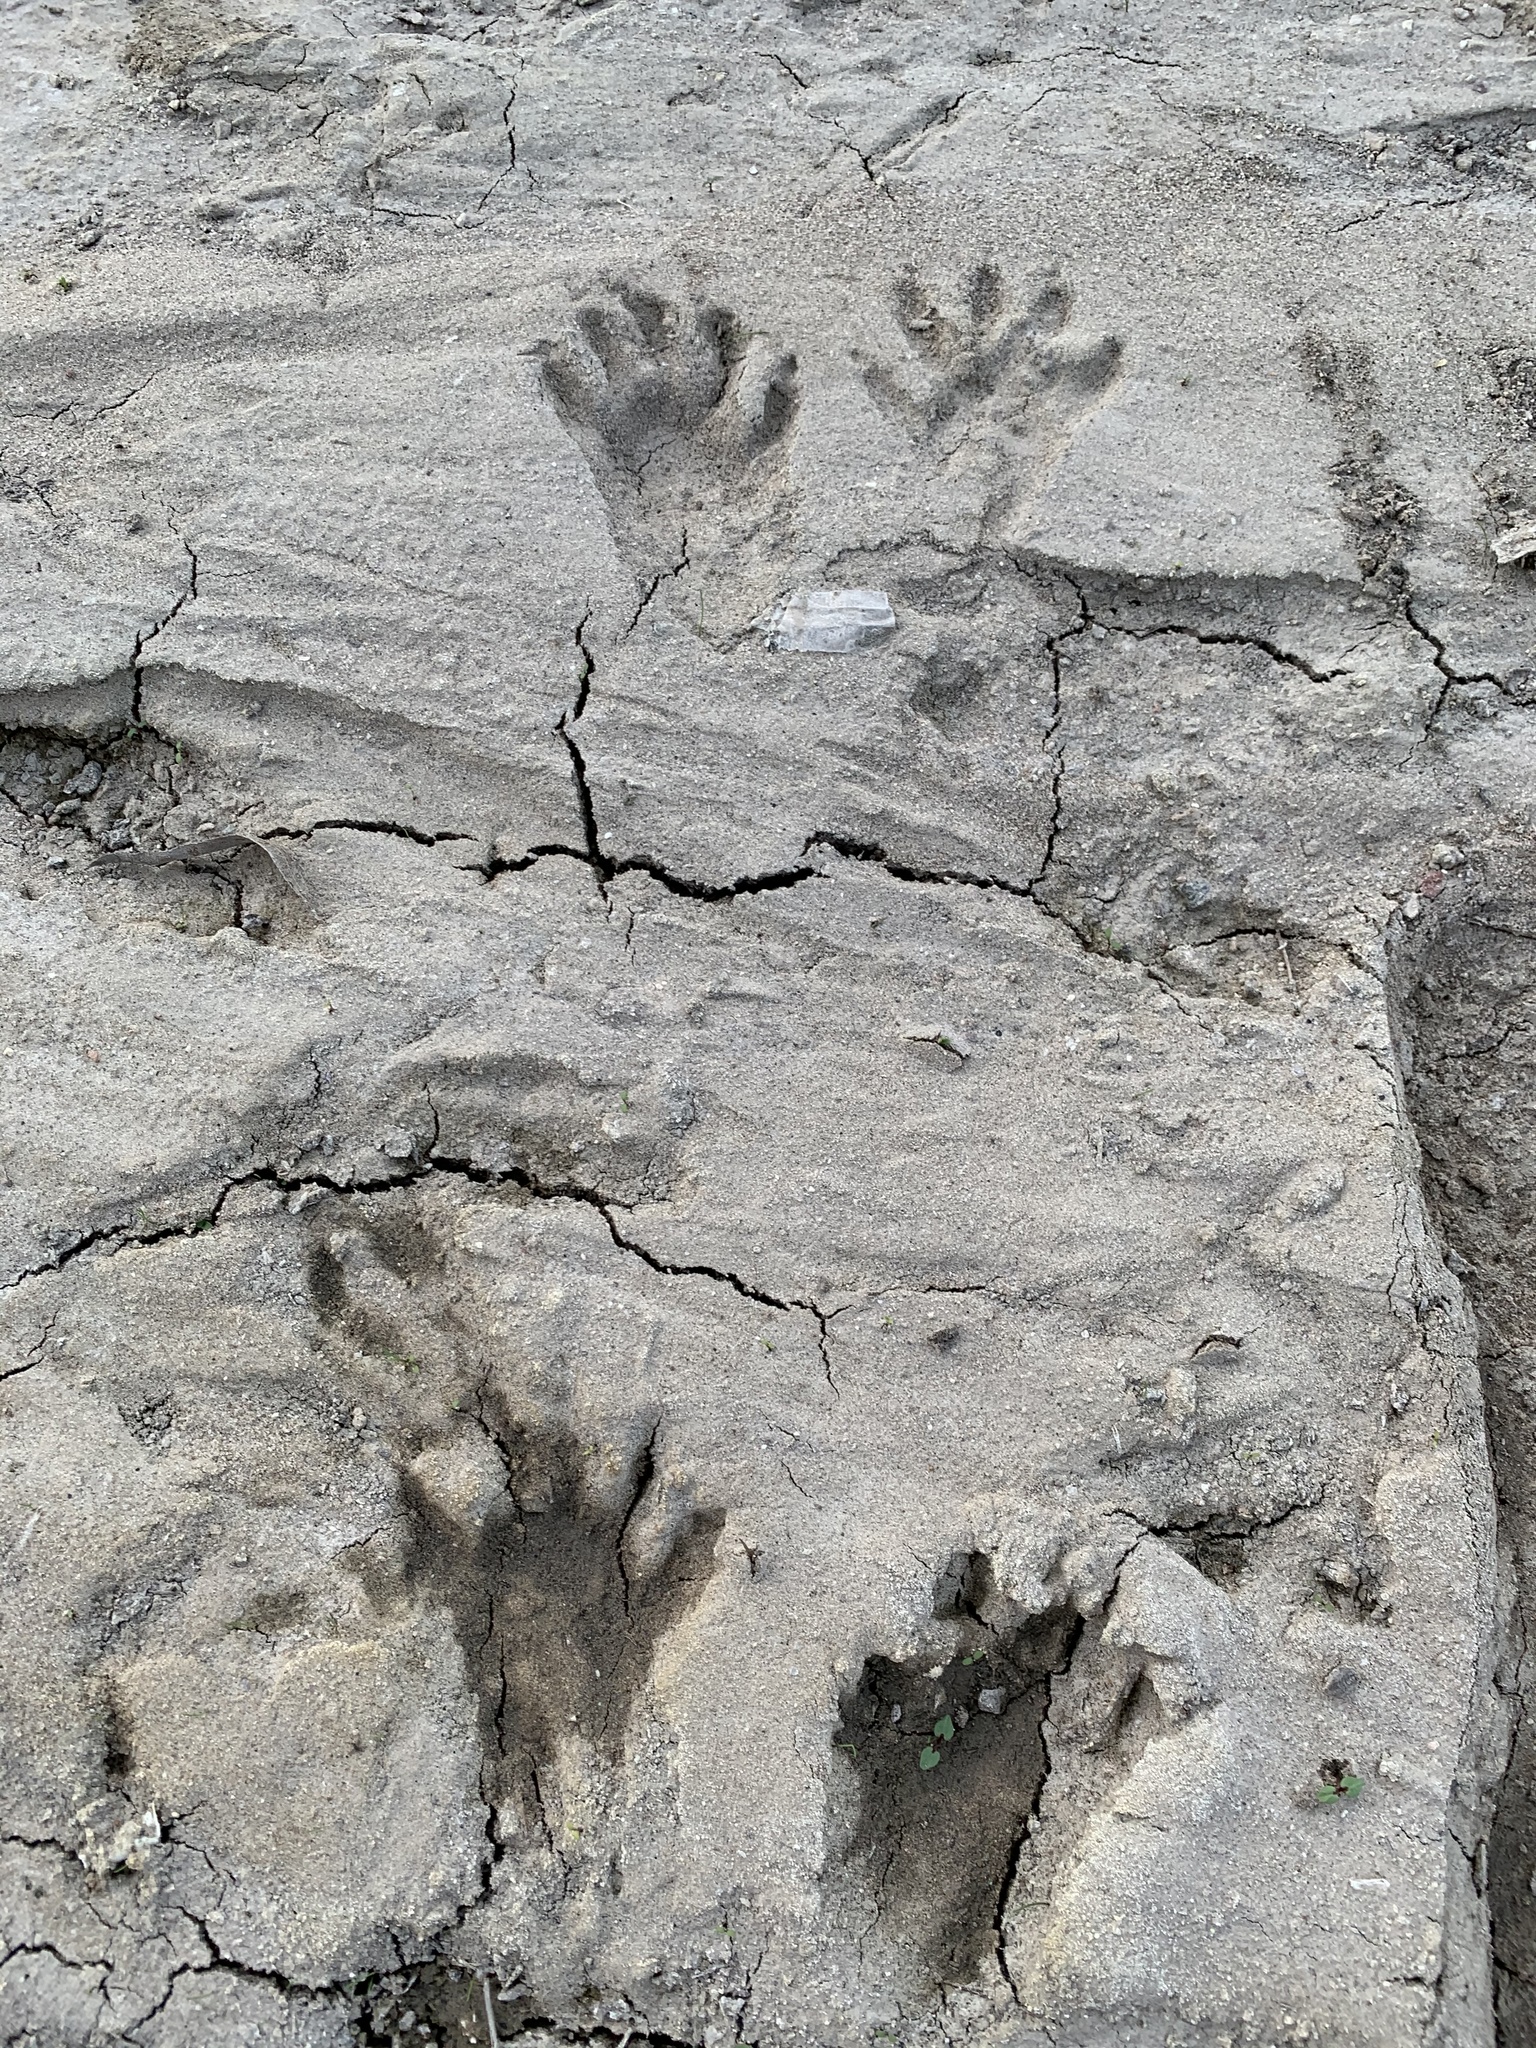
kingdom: Animalia
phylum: Chordata
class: Mammalia
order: Carnivora
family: Procyonidae
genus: Procyon
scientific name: Procyon lotor
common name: Raccoon
